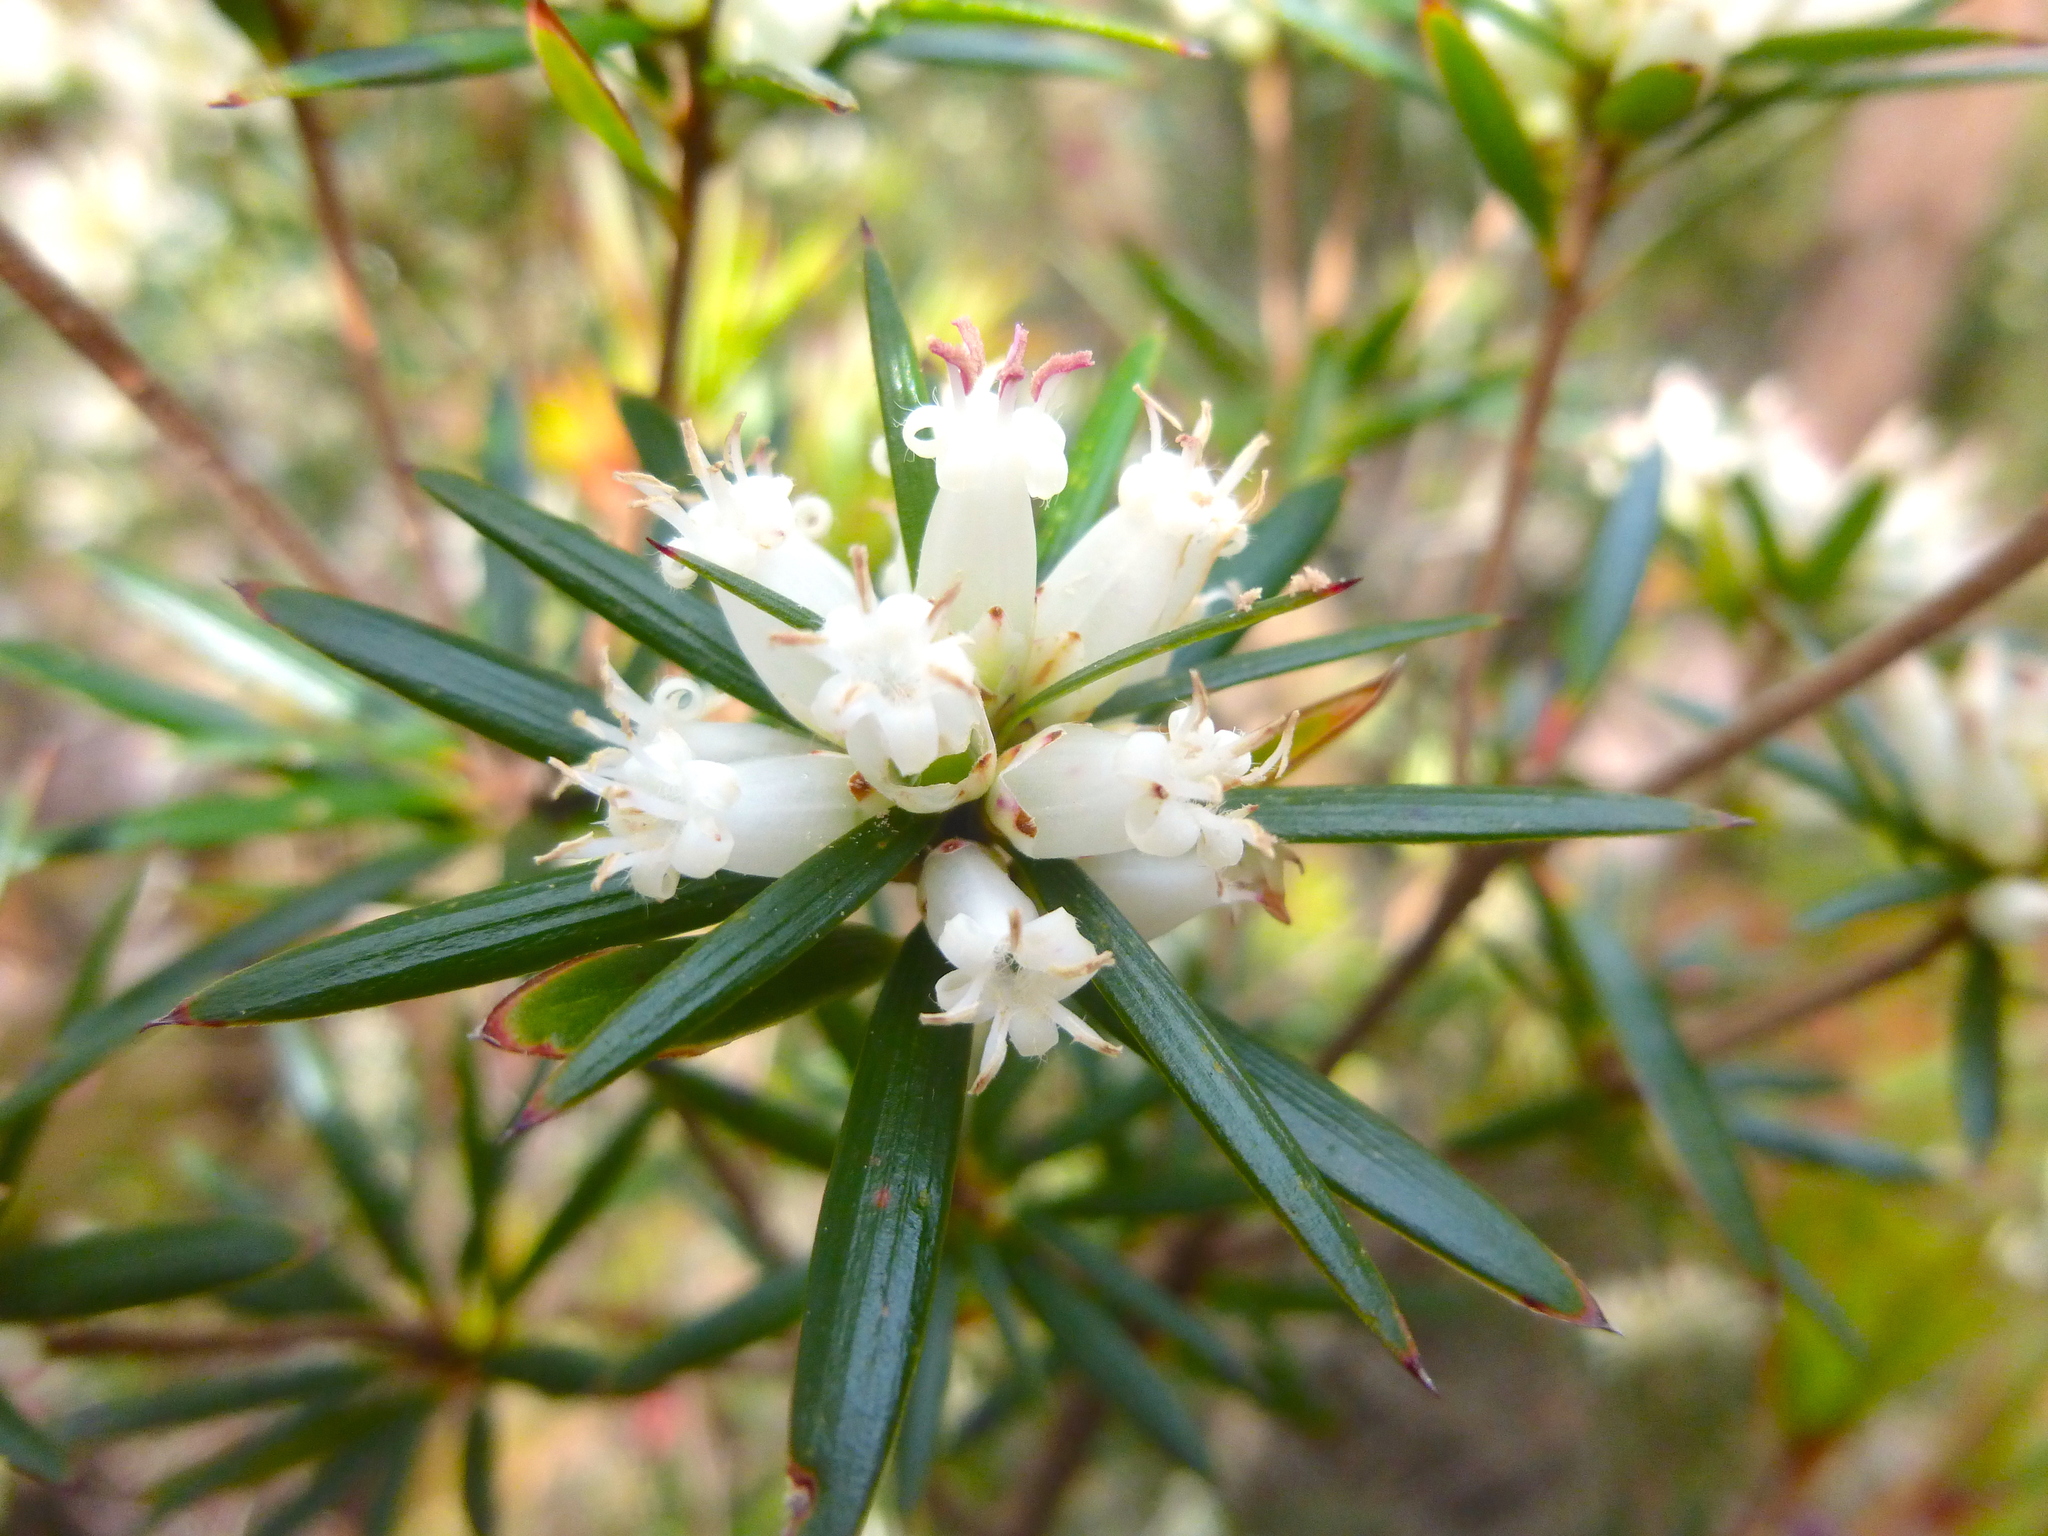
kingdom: Plantae
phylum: Tracheophyta
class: Magnoliopsida
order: Ericales
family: Ericaceae
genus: Cyathodes
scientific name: Cyathodes glauca
